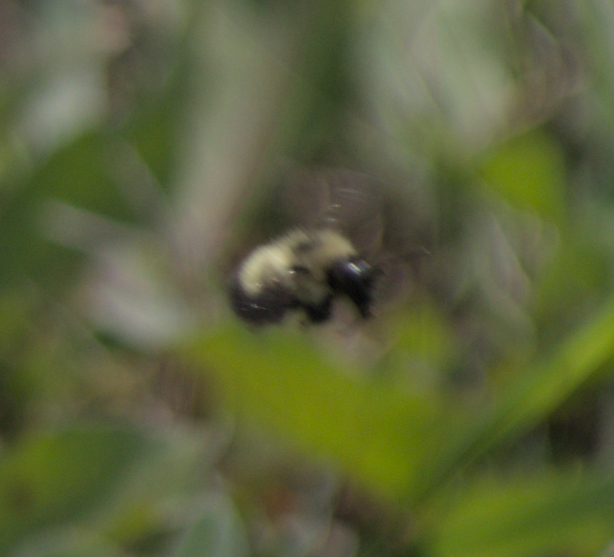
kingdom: Animalia
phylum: Arthropoda
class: Insecta
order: Hymenoptera
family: Apidae
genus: Pyrobombus
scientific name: Pyrobombus
